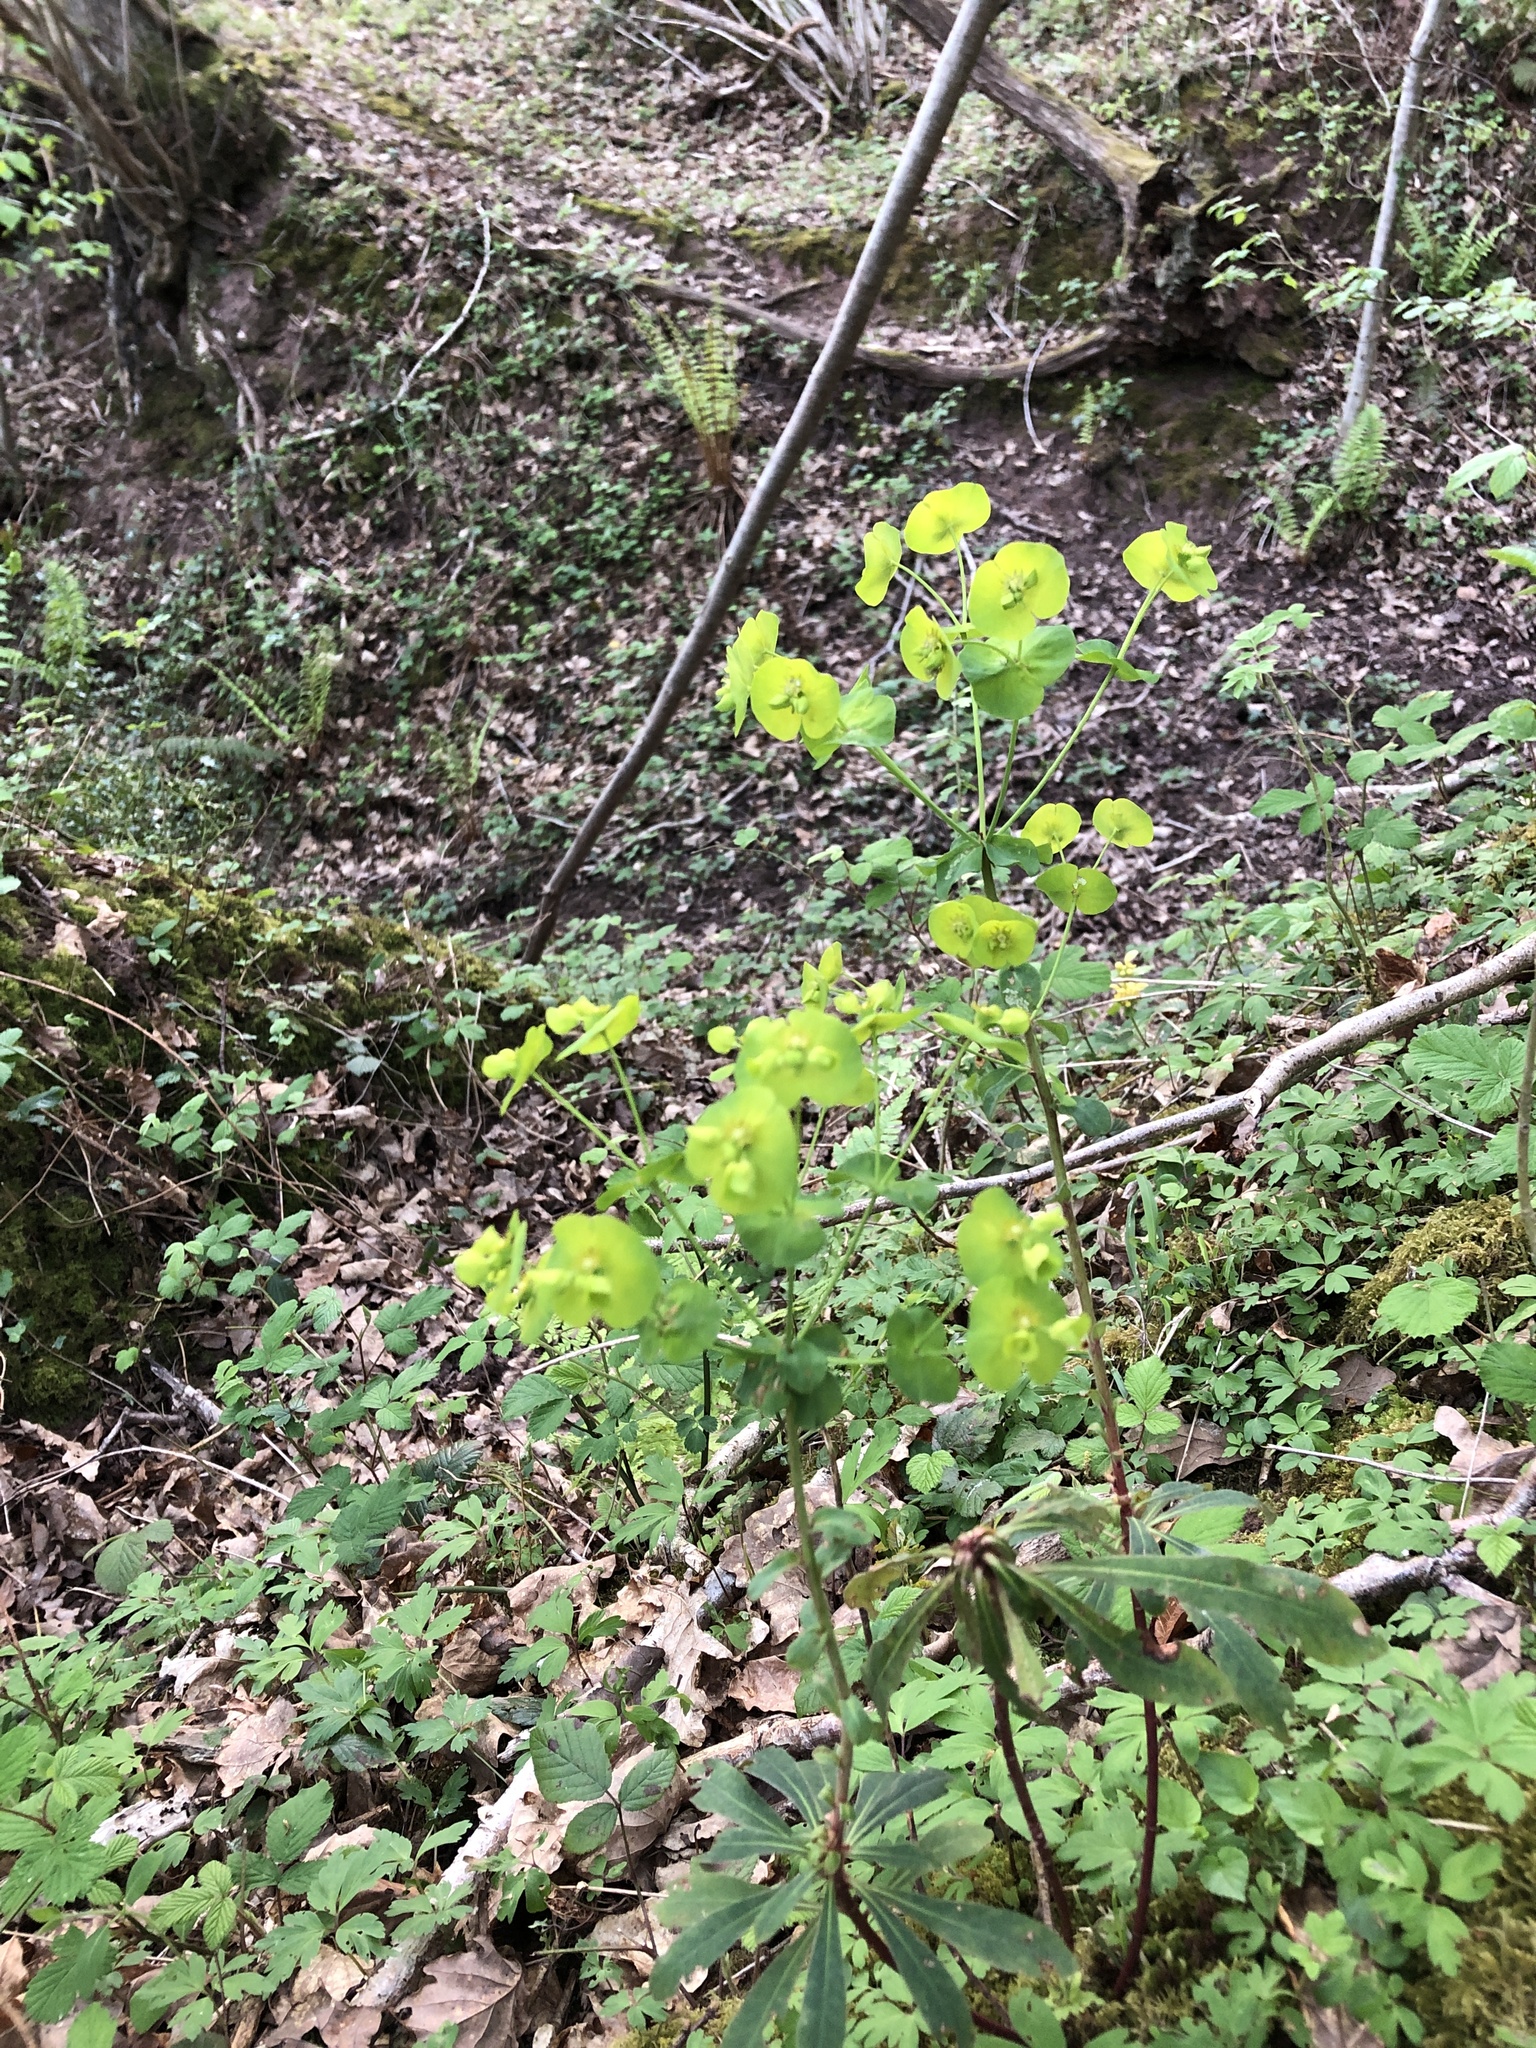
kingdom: Plantae
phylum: Tracheophyta
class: Magnoliopsida
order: Malpighiales
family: Euphorbiaceae
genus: Euphorbia
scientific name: Euphorbia amygdaloides
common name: Wood spurge
